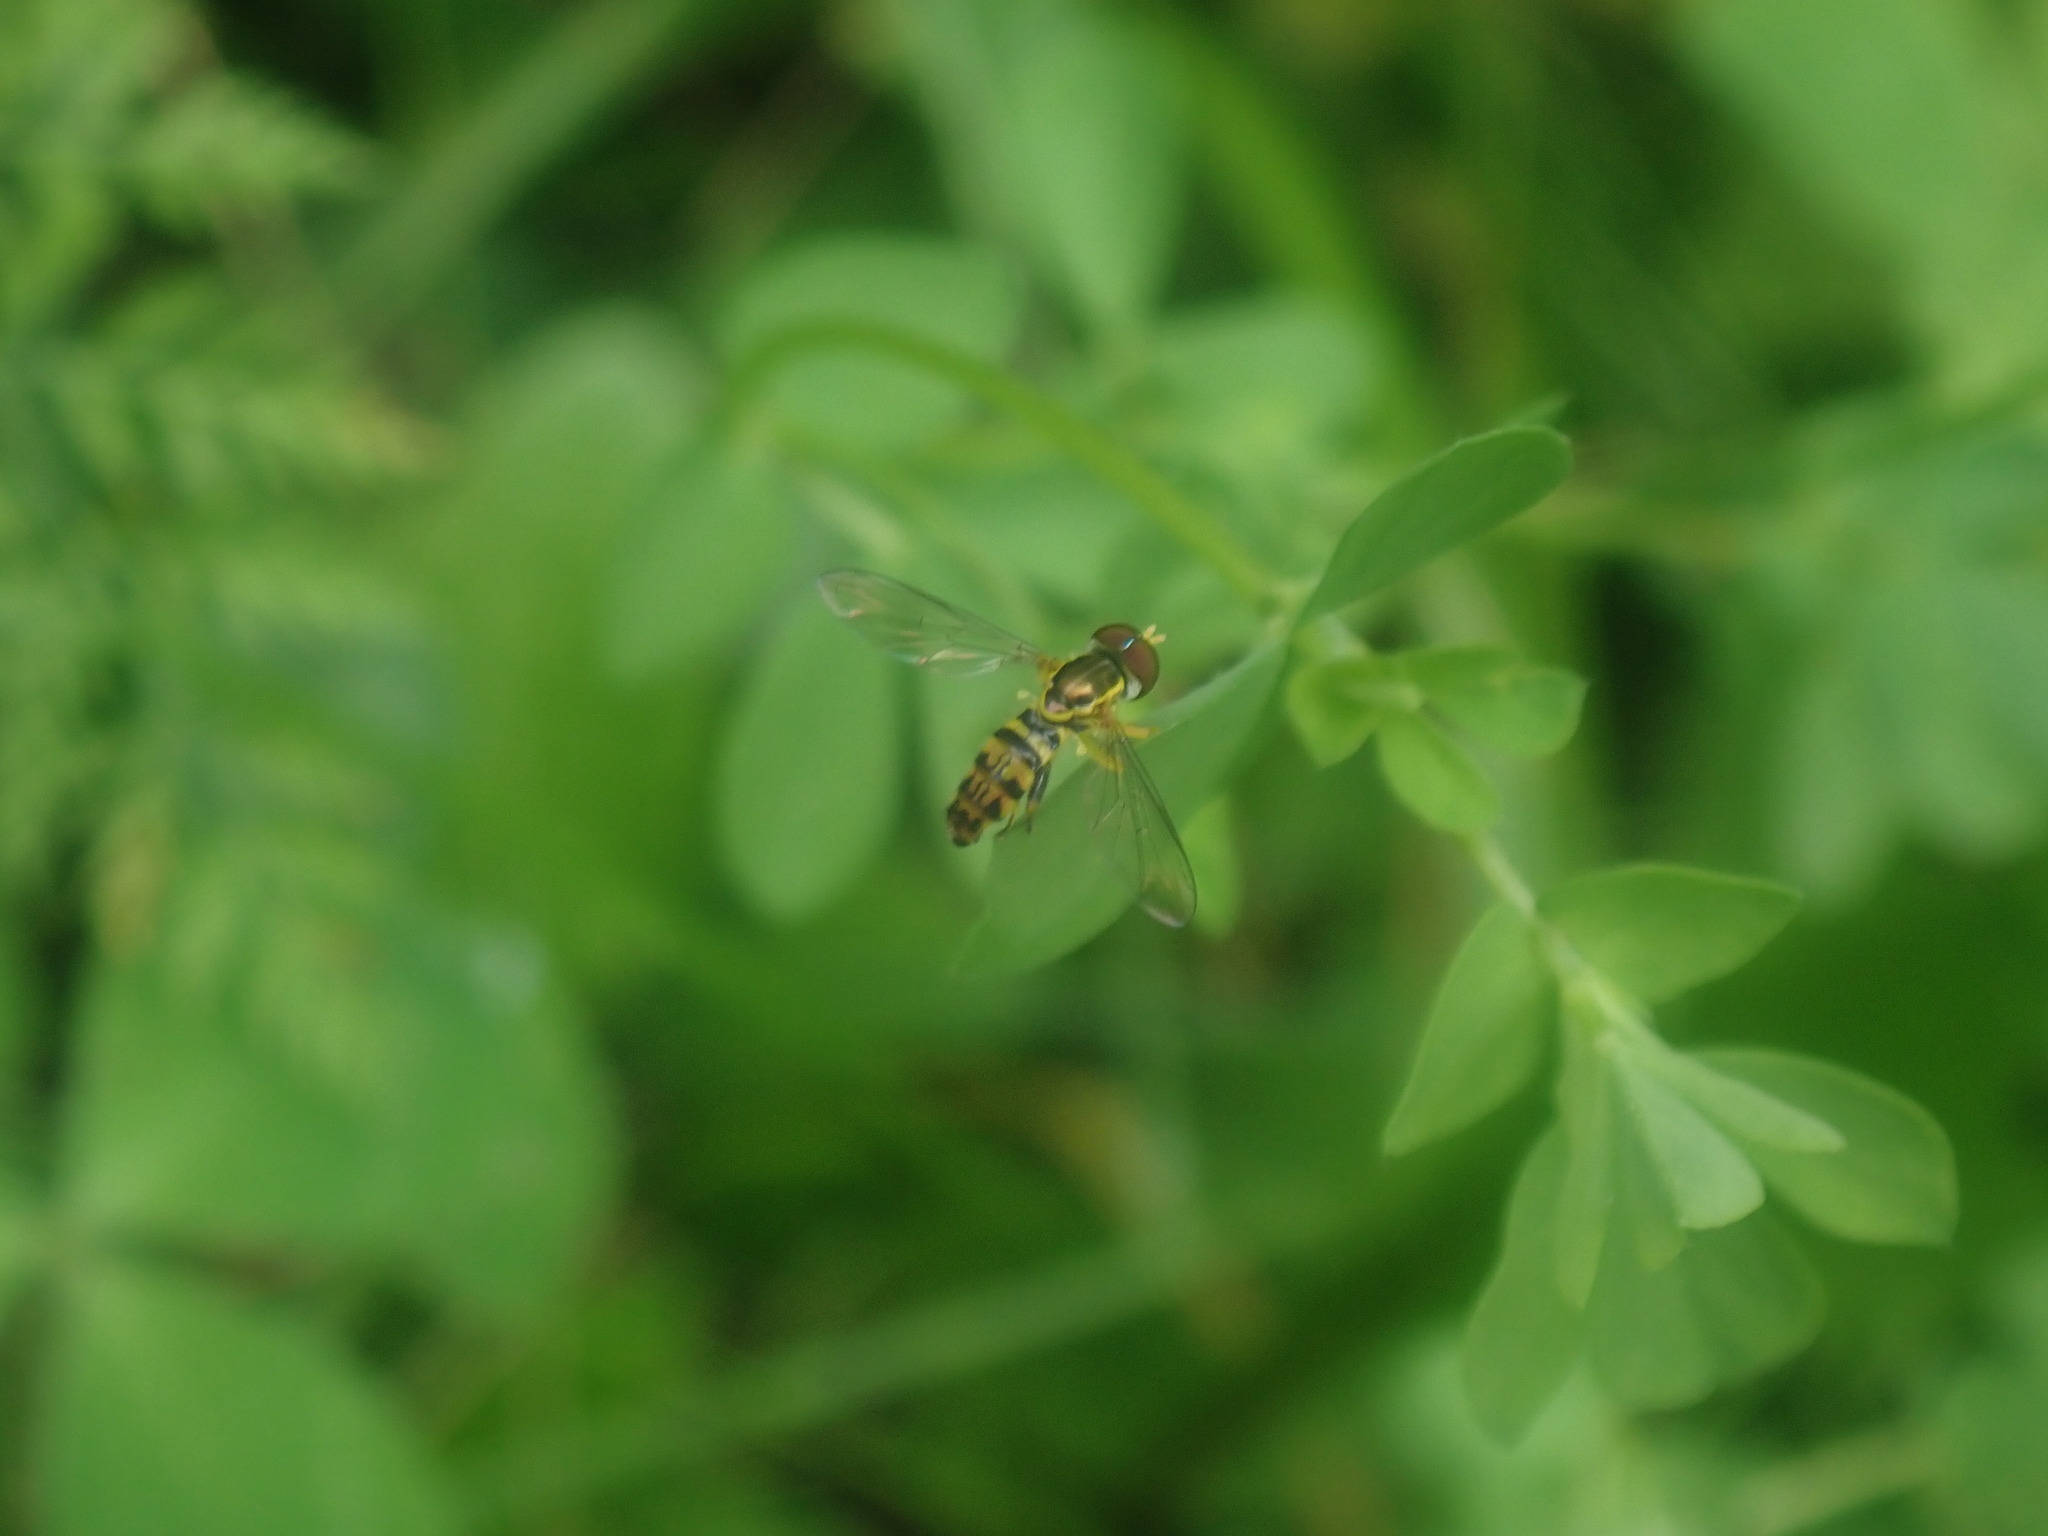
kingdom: Animalia
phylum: Arthropoda
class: Insecta
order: Diptera
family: Syrphidae
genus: Toxomerus
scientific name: Toxomerus geminatus
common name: Eastern calligrapher
